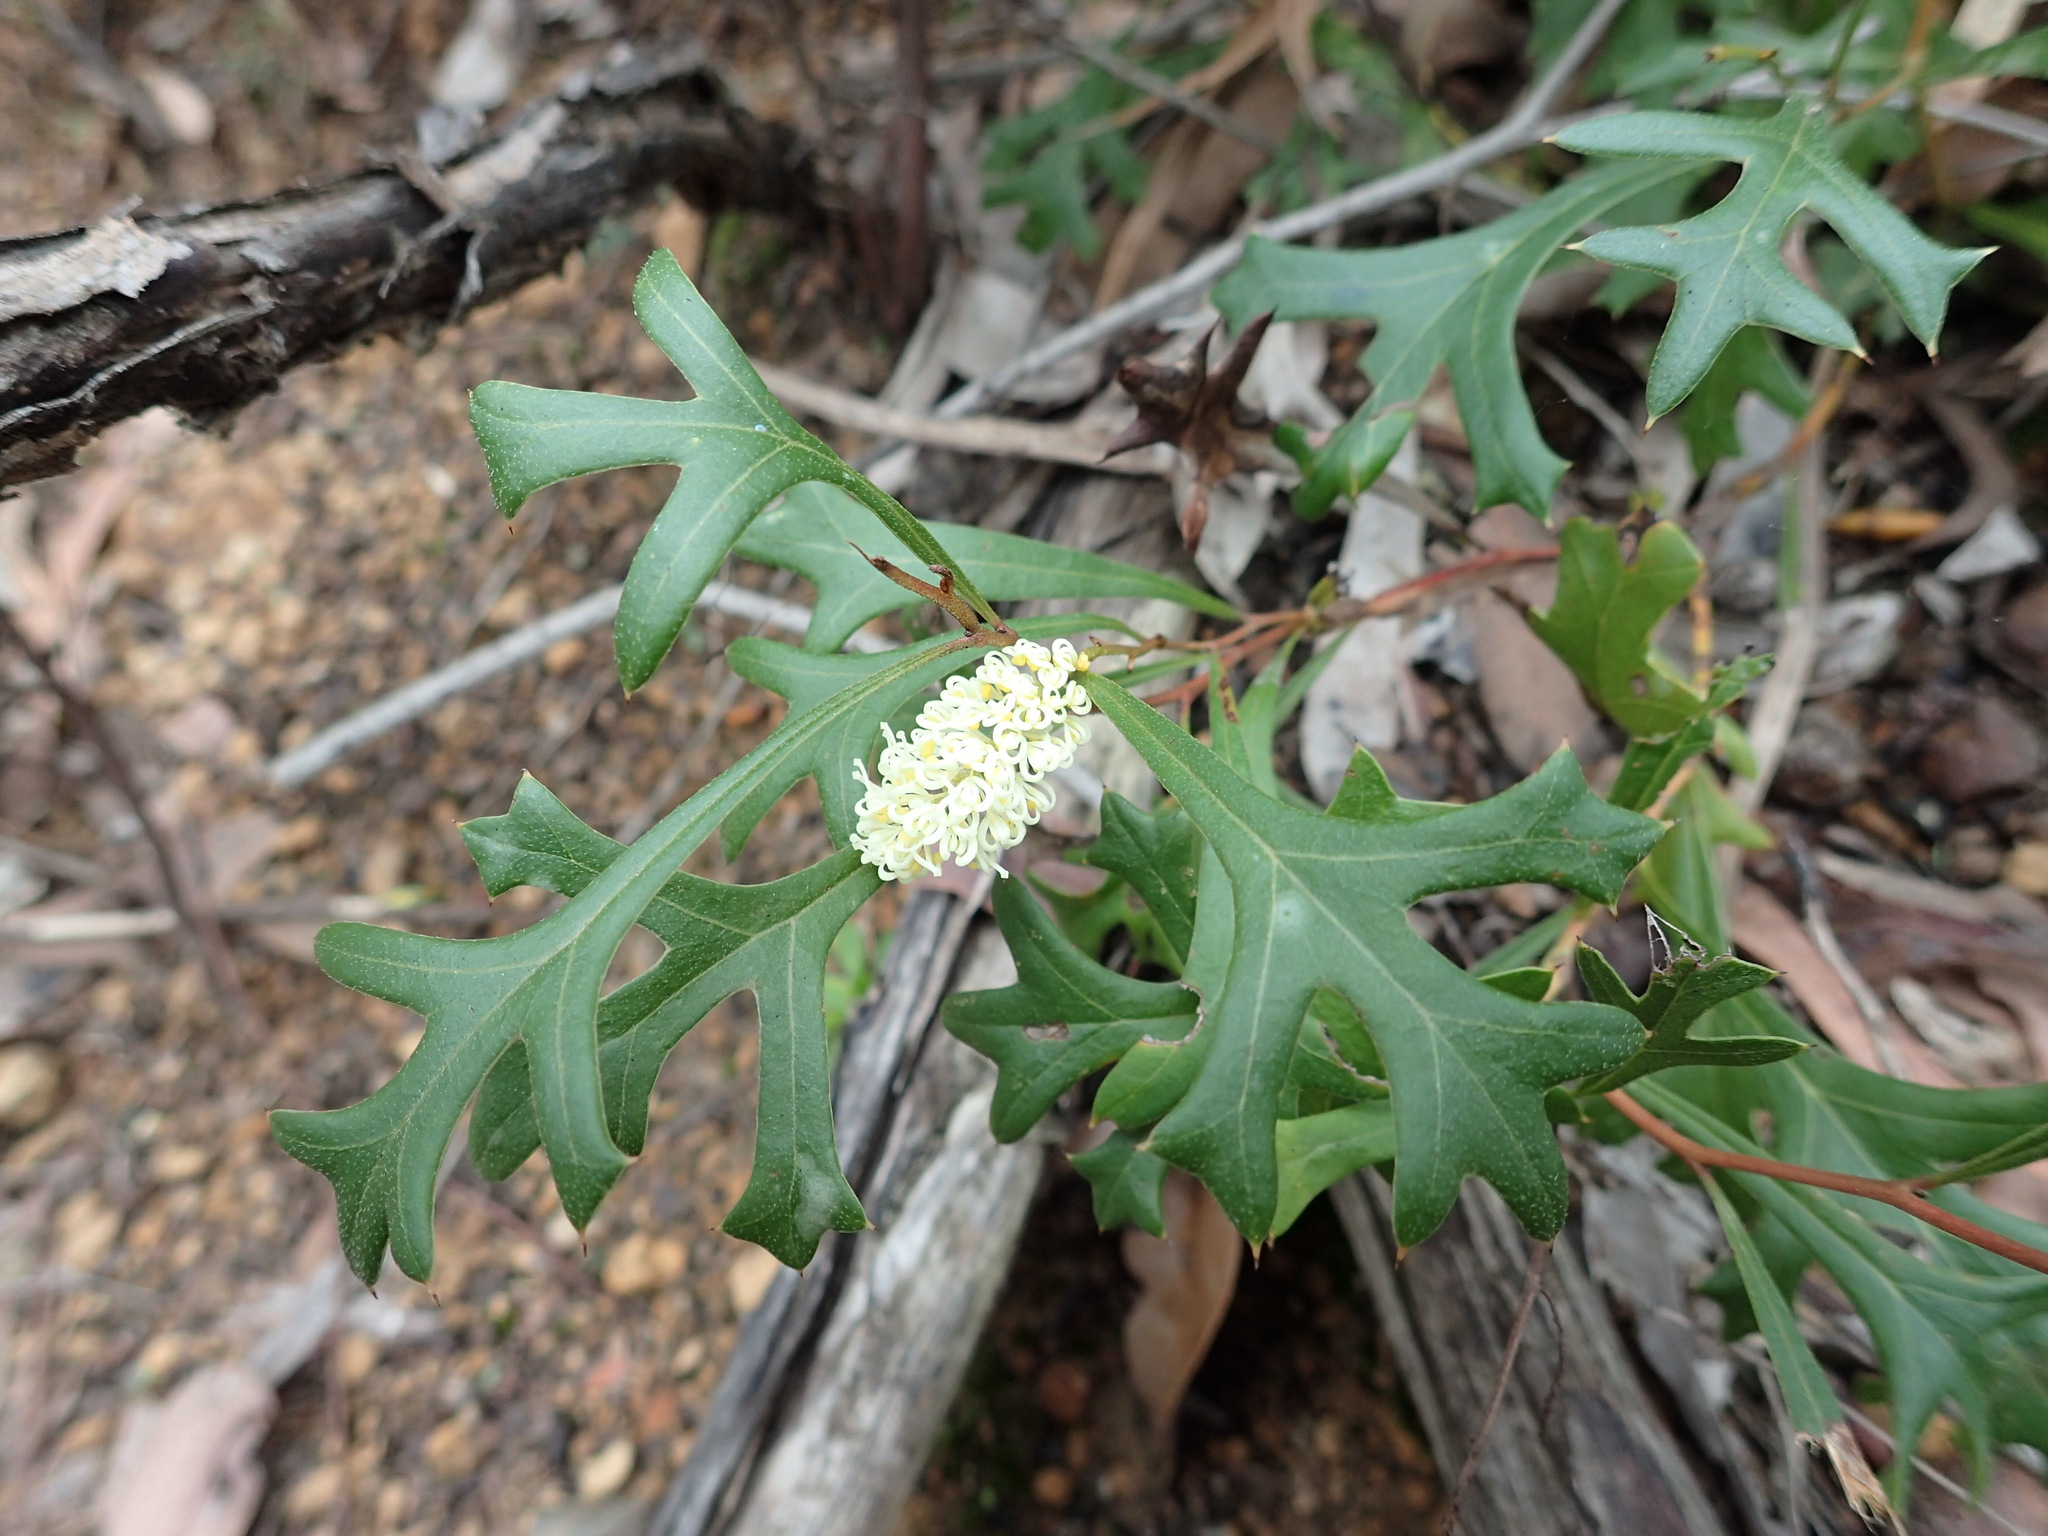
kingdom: Plantae
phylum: Tracheophyta
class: Magnoliopsida
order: Proteales
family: Proteaceae
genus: Grevillea
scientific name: Grevillea synaphea
